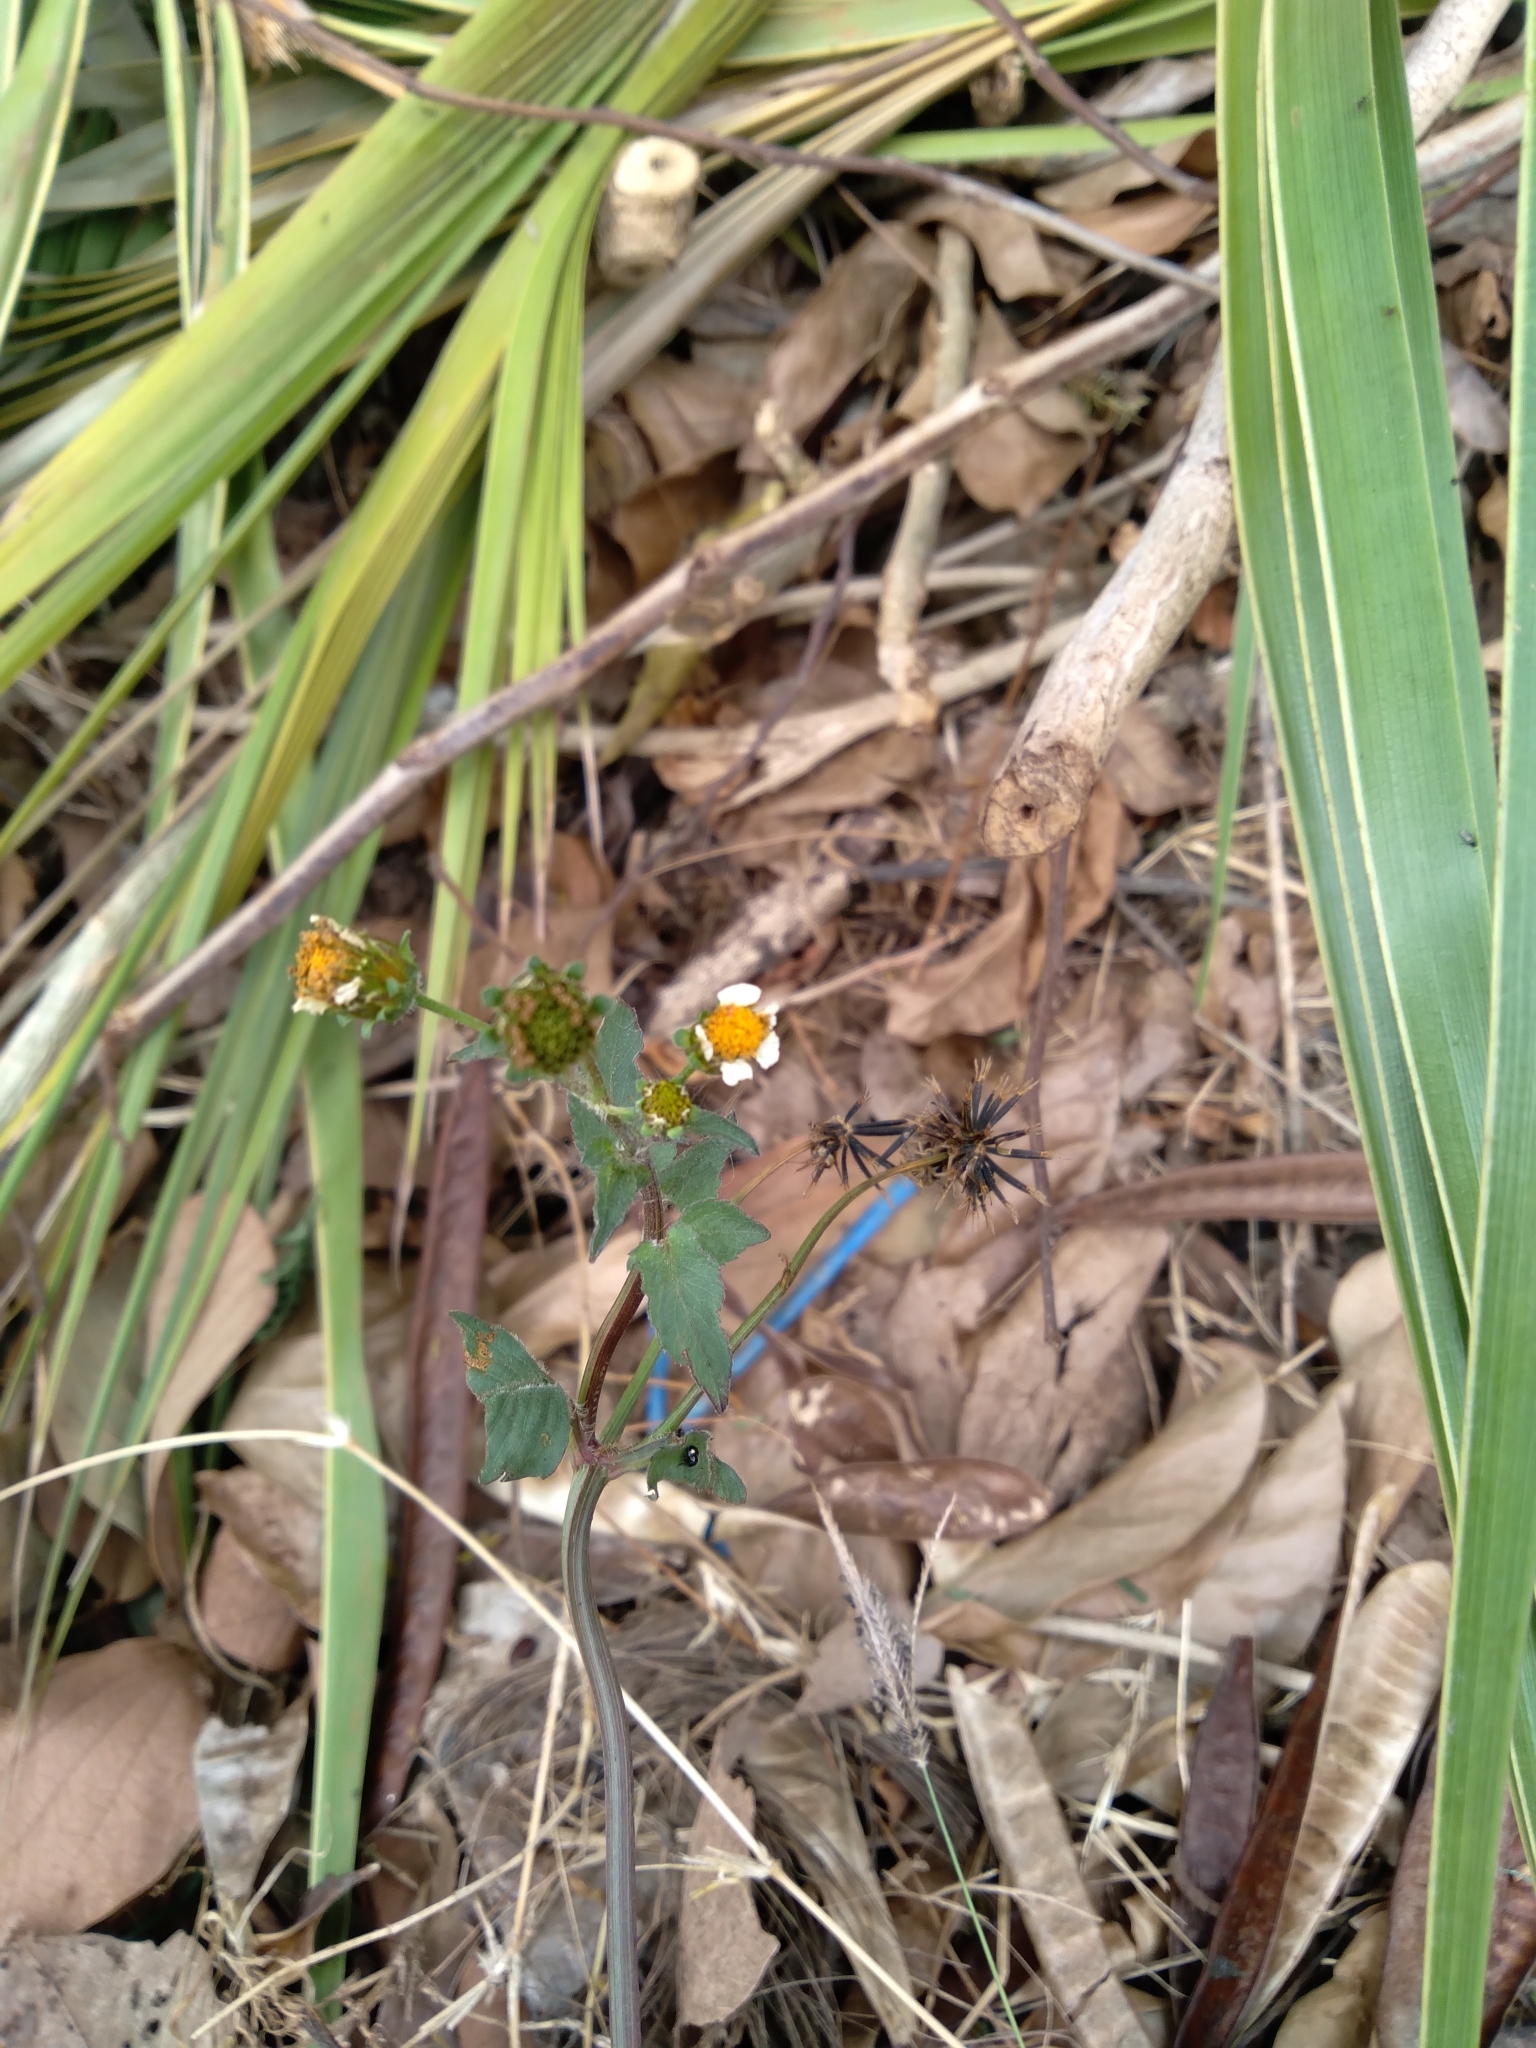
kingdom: Plantae
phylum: Tracheophyta
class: Magnoliopsida
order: Asterales
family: Asteraceae
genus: Bidens
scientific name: Bidens pilosa
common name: Black-jack
